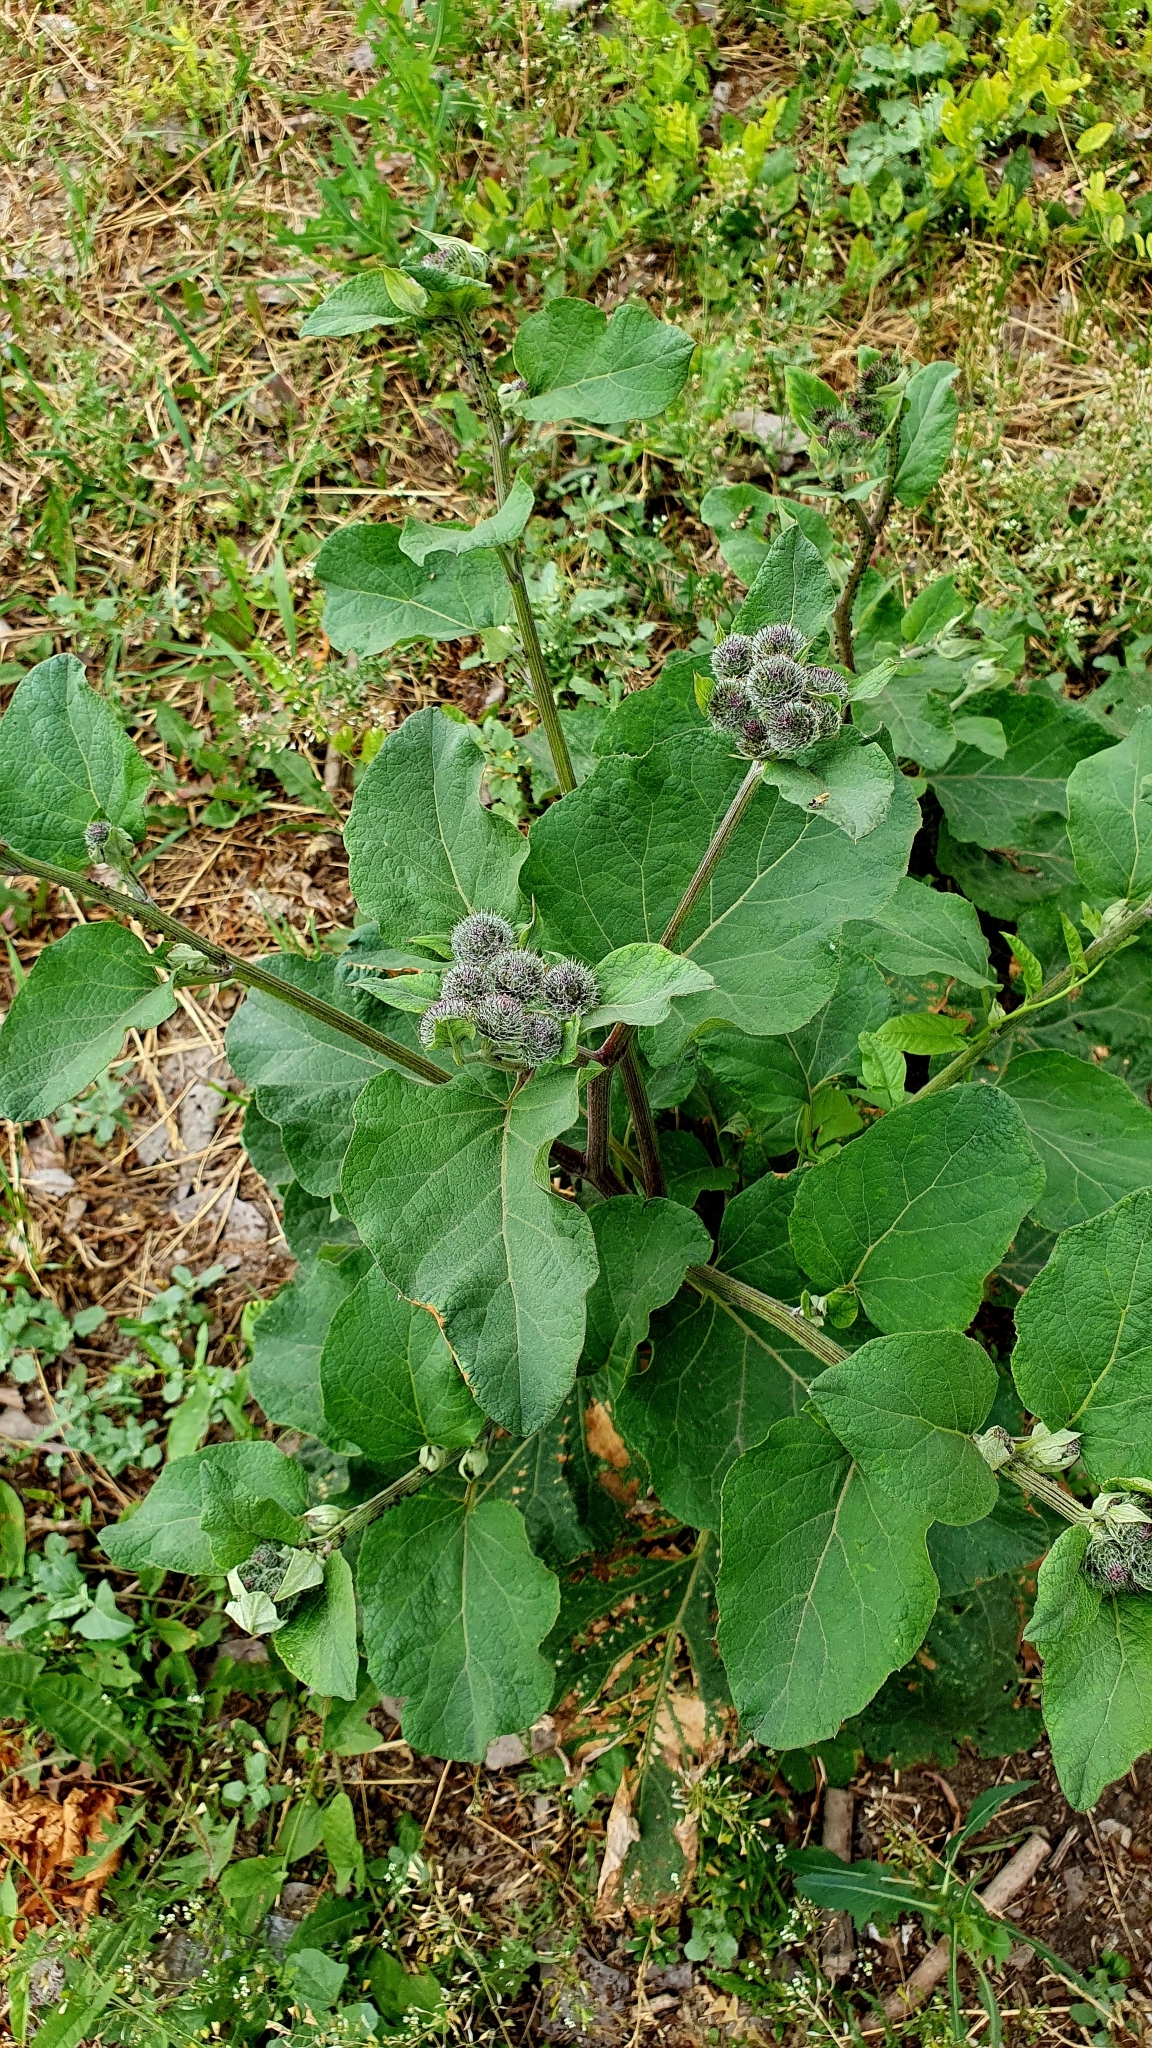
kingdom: Plantae
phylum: Tracheophyta
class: Magnoliopsida
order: Asterales
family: Asteraceae
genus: Arctium
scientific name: Arctium tomentosum
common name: Woolly burdock
